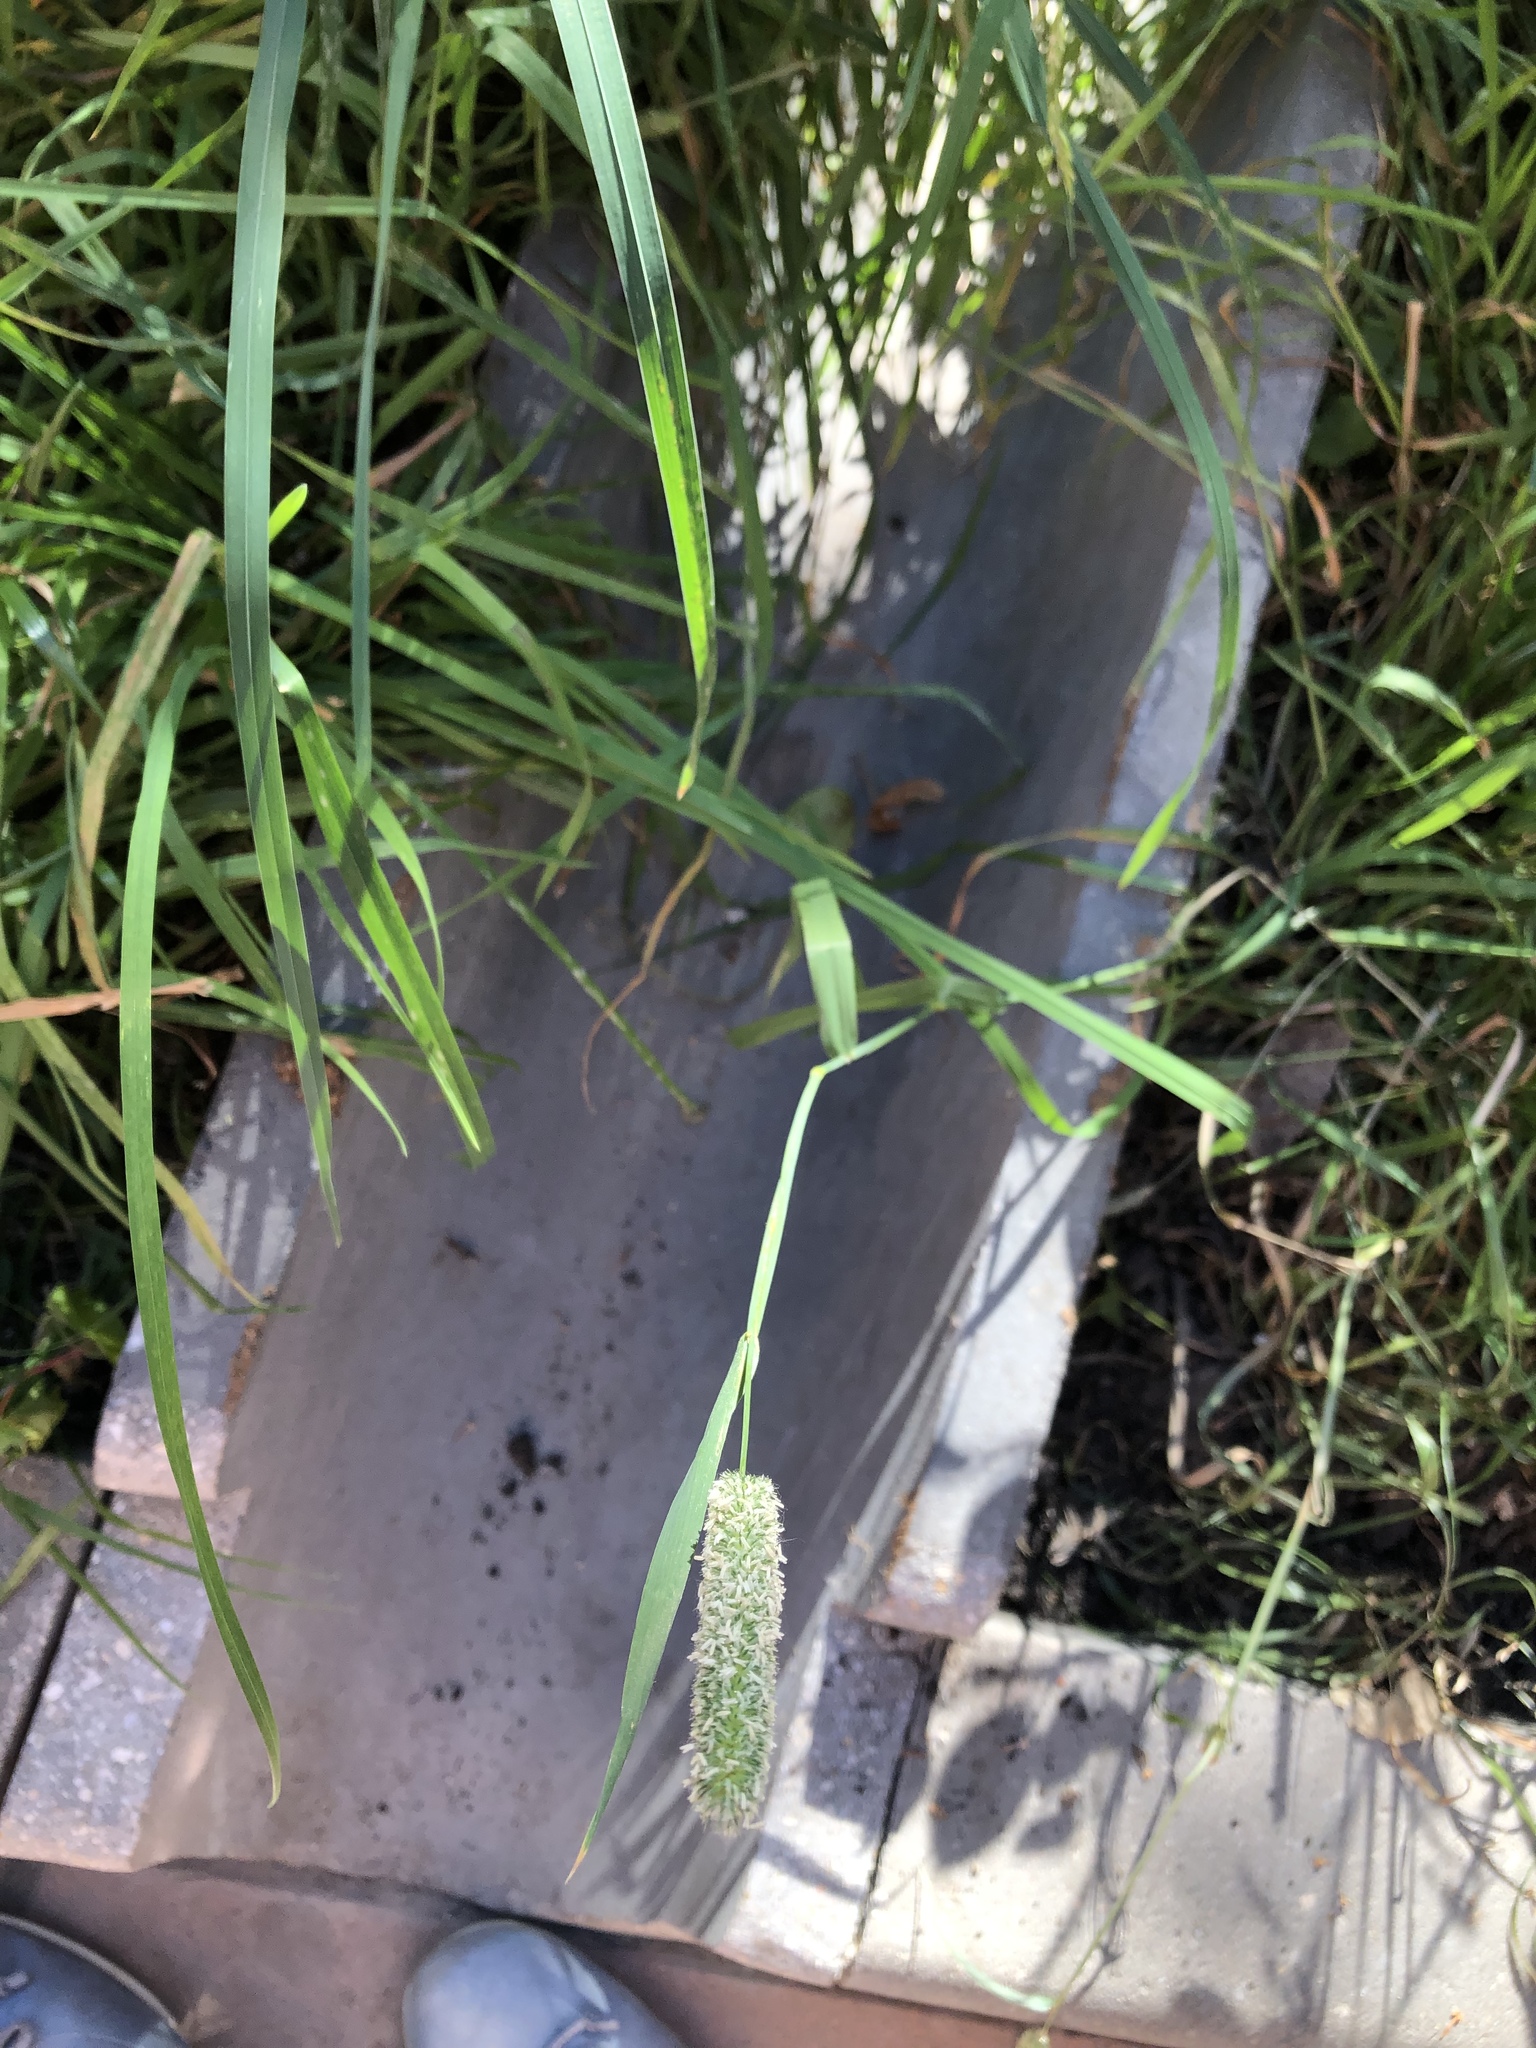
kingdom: Plantae
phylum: Tracheophyta
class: Liliopsida
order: Poales
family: Poaceae
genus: Phleum
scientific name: Phleum pratense
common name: Timothy grass
